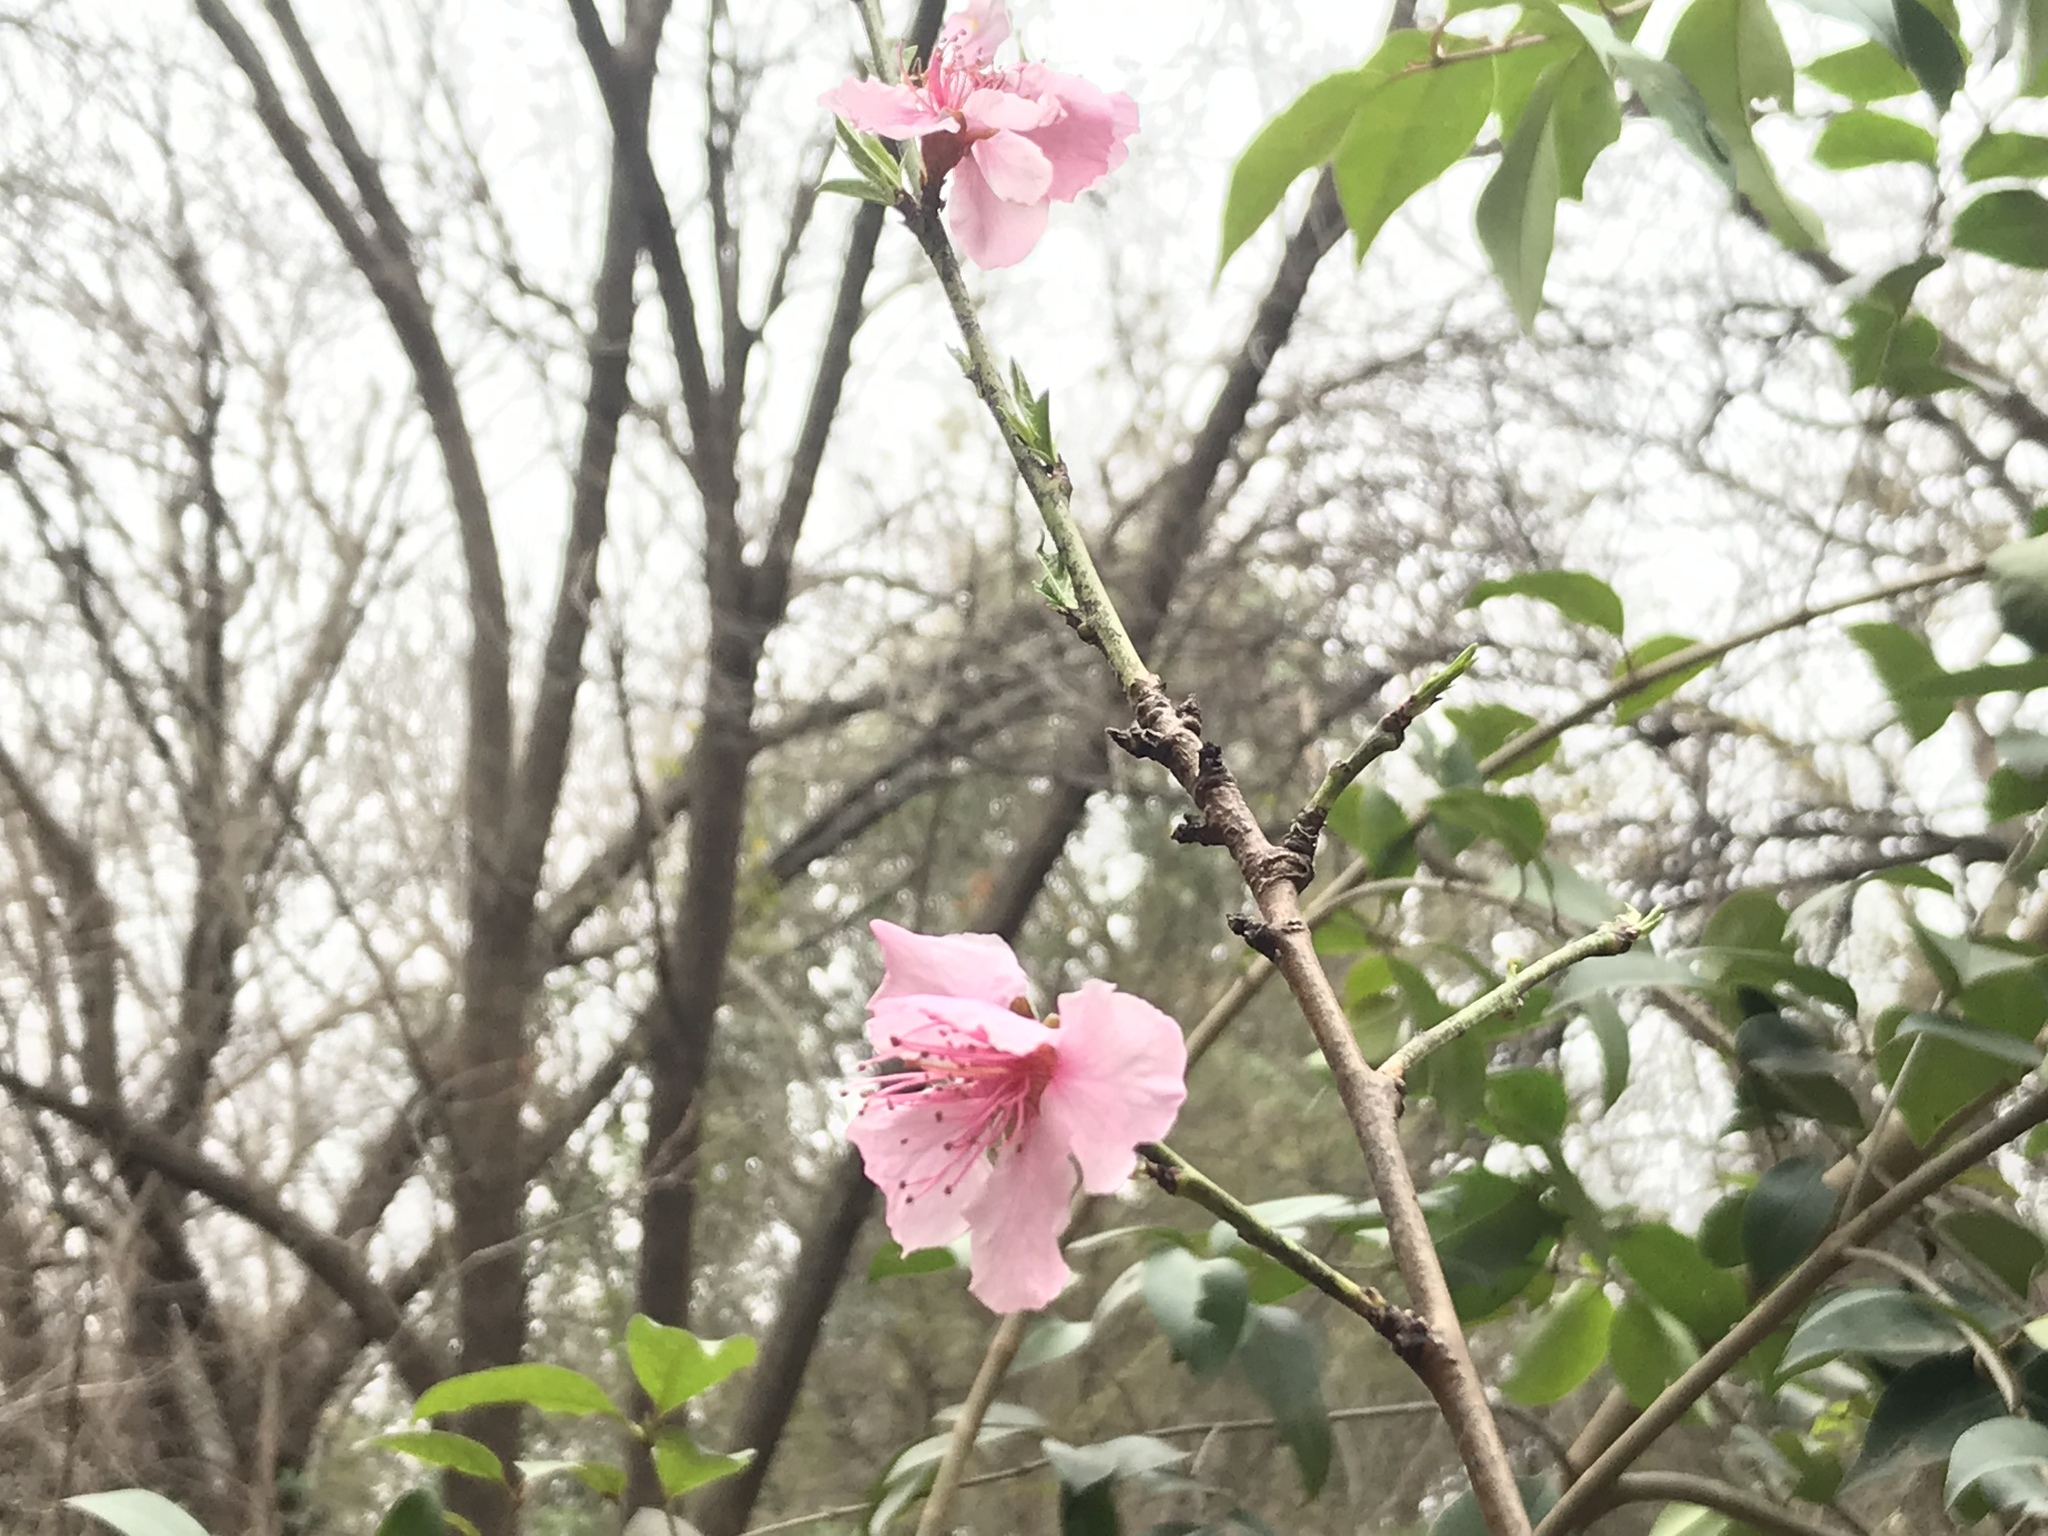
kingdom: Plantae
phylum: Tracheophyta
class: Magnoliopsida
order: Rosales
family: Rosaceae
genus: Prunus
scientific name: Prunus persica
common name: Peach
